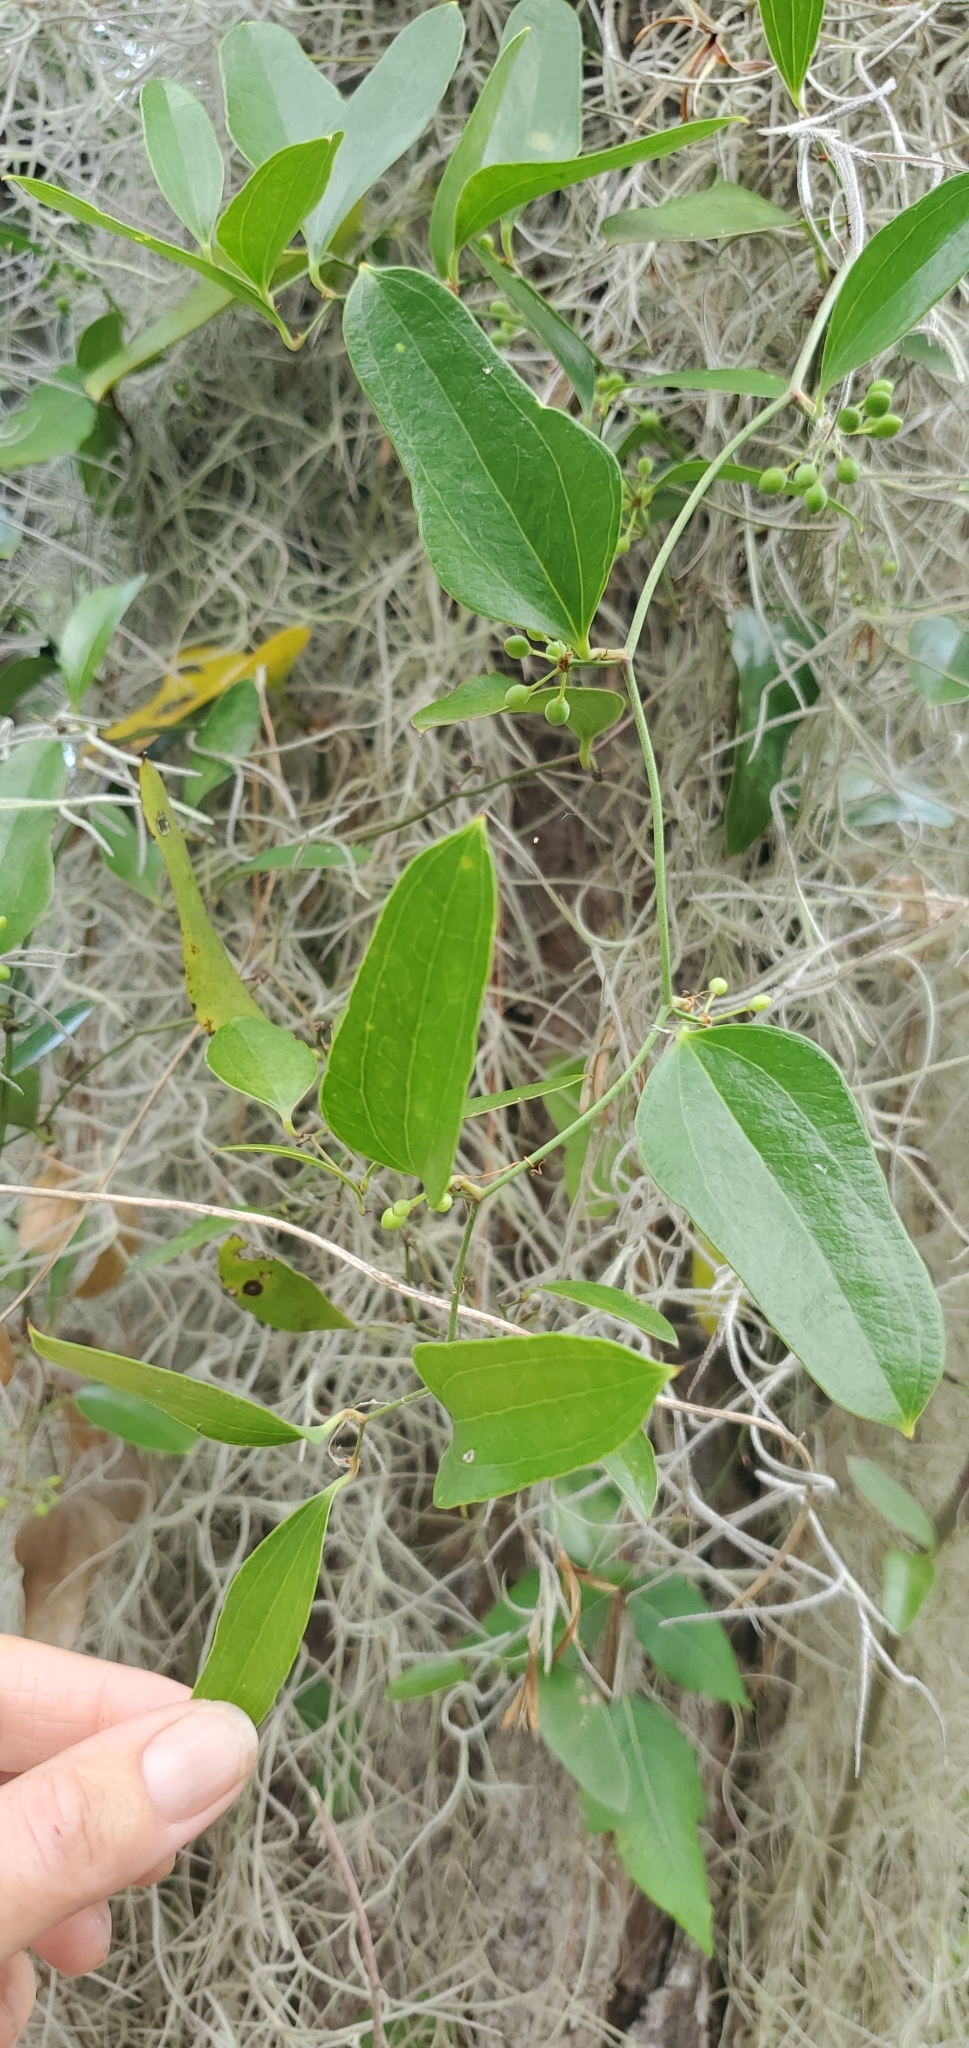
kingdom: Plantae
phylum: Tracheophyta
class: Liliopsida
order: Liliales
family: Smilacaceae
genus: Smilax
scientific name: Smilax auriculata
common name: Wild bamboo
